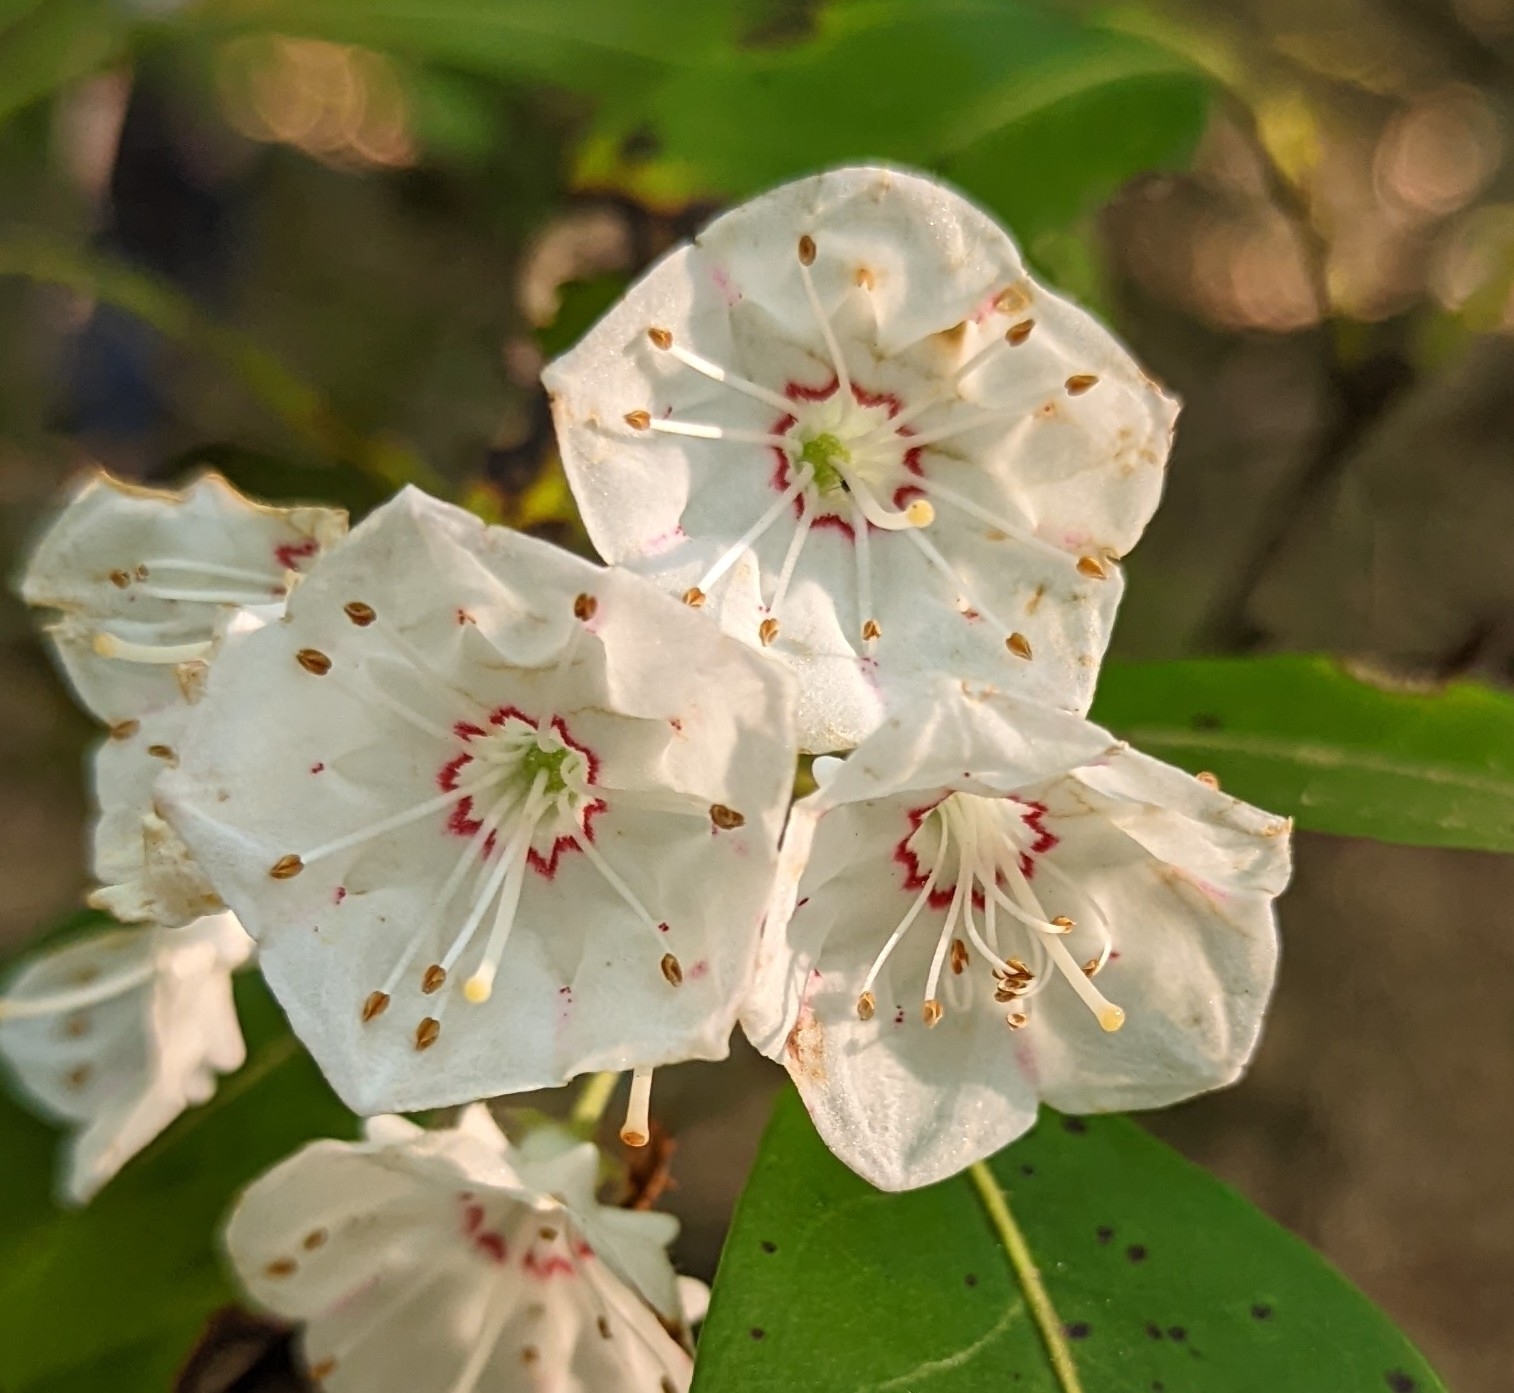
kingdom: Plantae
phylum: Tracheophyta
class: Magnoliopsida
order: Ericales
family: Ericaceae
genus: Kalmia
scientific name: Kalmia latifolia
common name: Mountain-laurel
